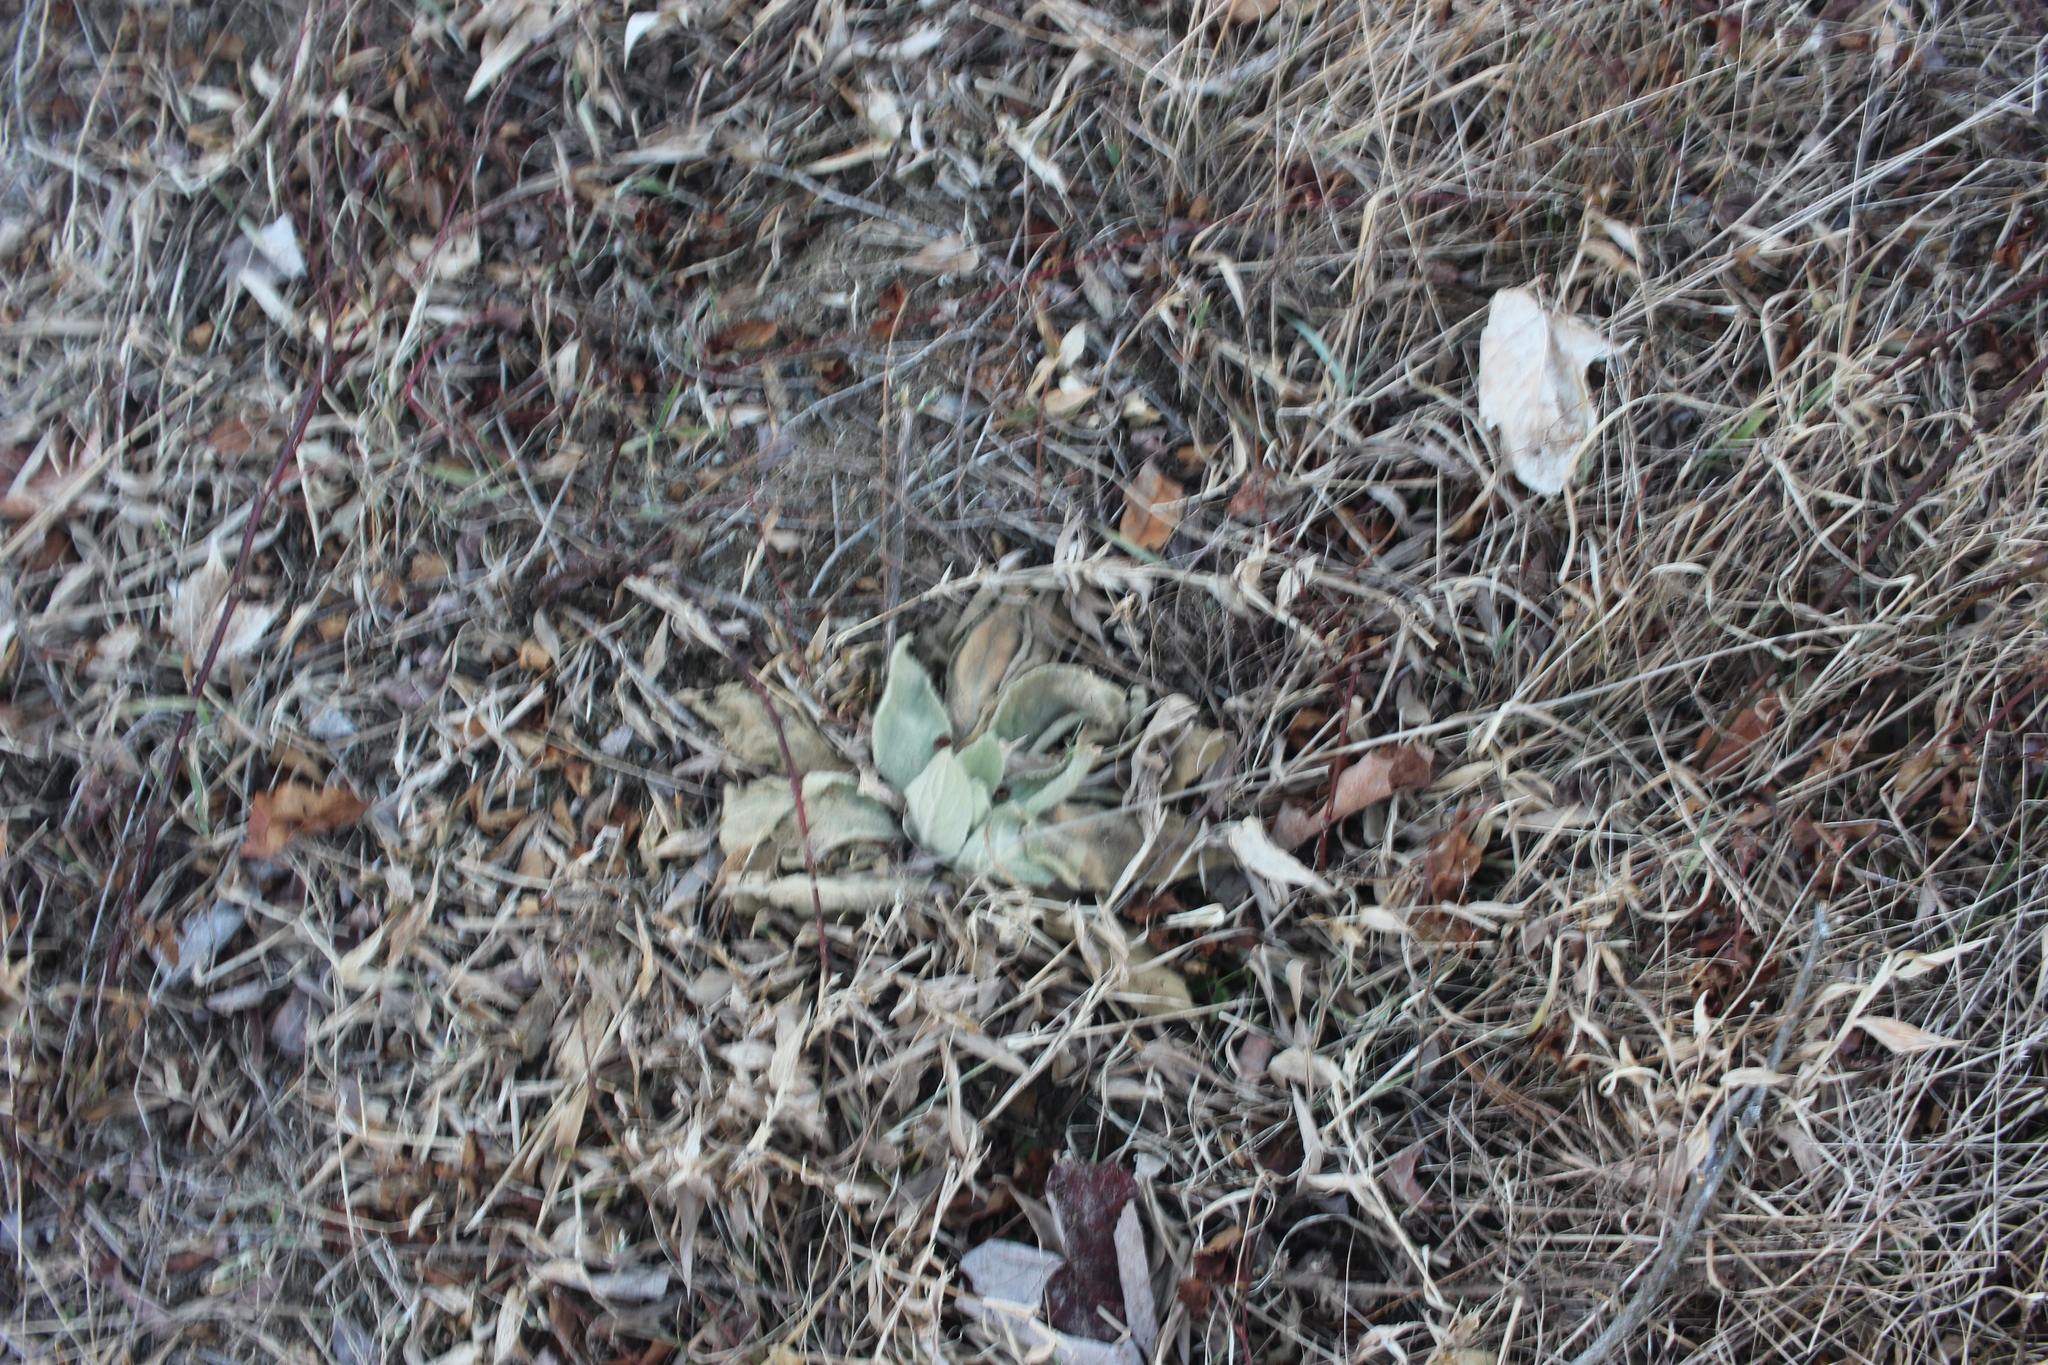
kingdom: Plantae
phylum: Tracheophyta
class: Magnoliopsida
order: Lamiales
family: Scrophulariaceae
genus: Verbascum
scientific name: Verbascum thapsus
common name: Common mullein
